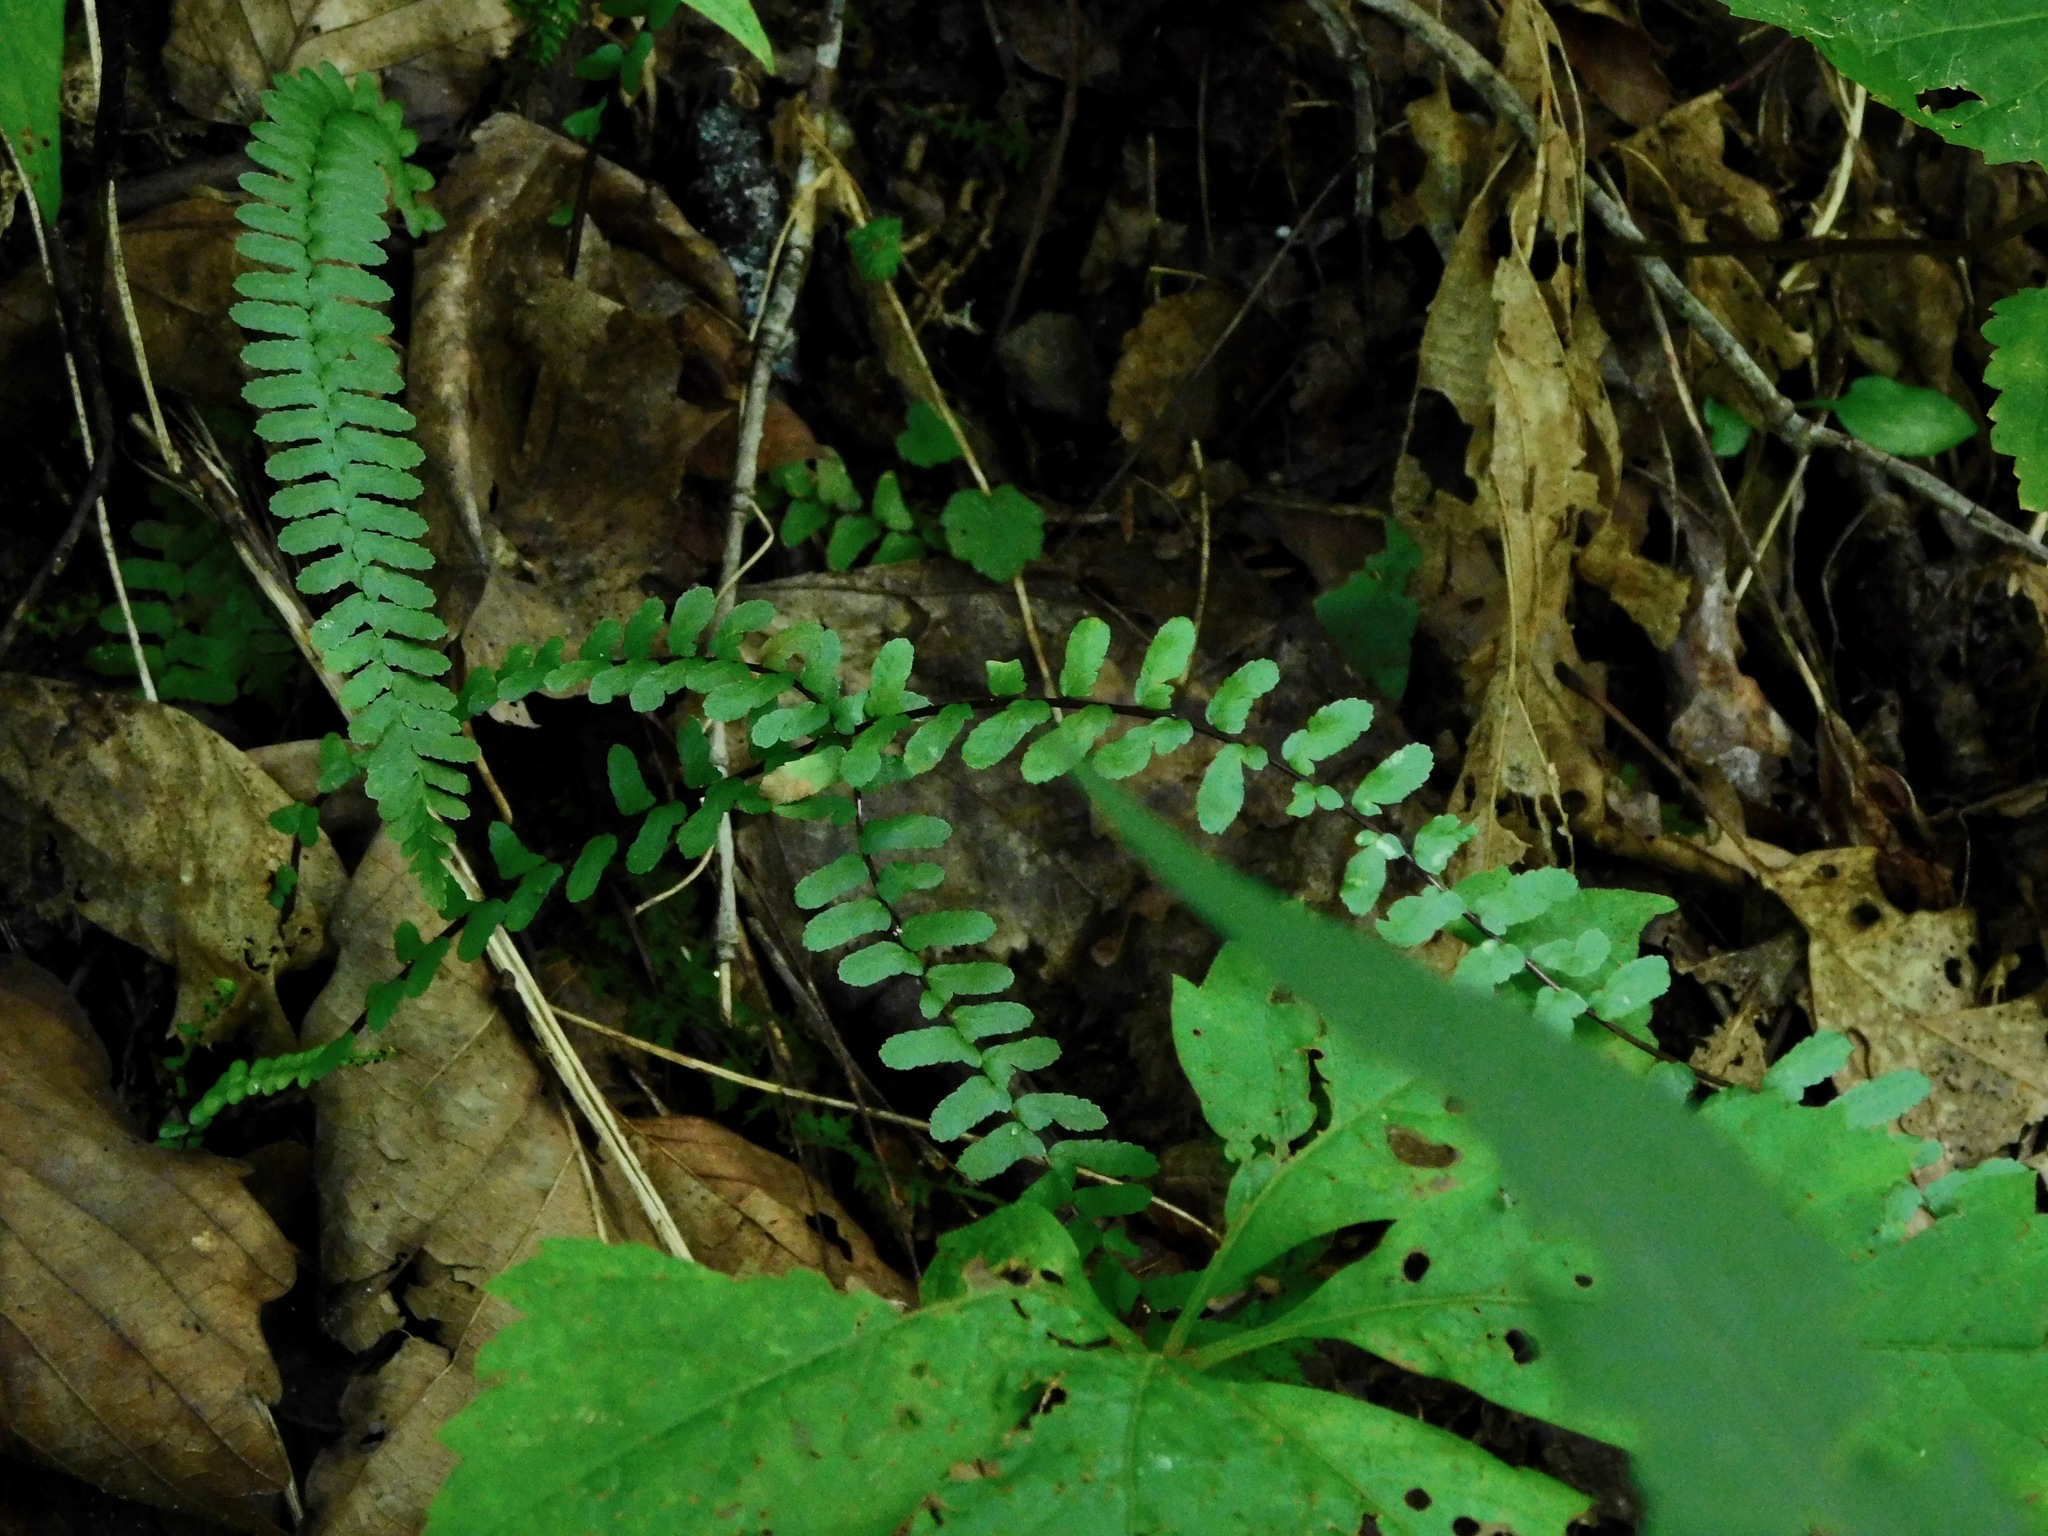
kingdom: Plantae
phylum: Tracheophyta
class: Polypodiopsida
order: Polypodiales
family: Aspleniaceae
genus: Asplenium
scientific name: Asplenium platyneuron
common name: Ebony spleenwort
